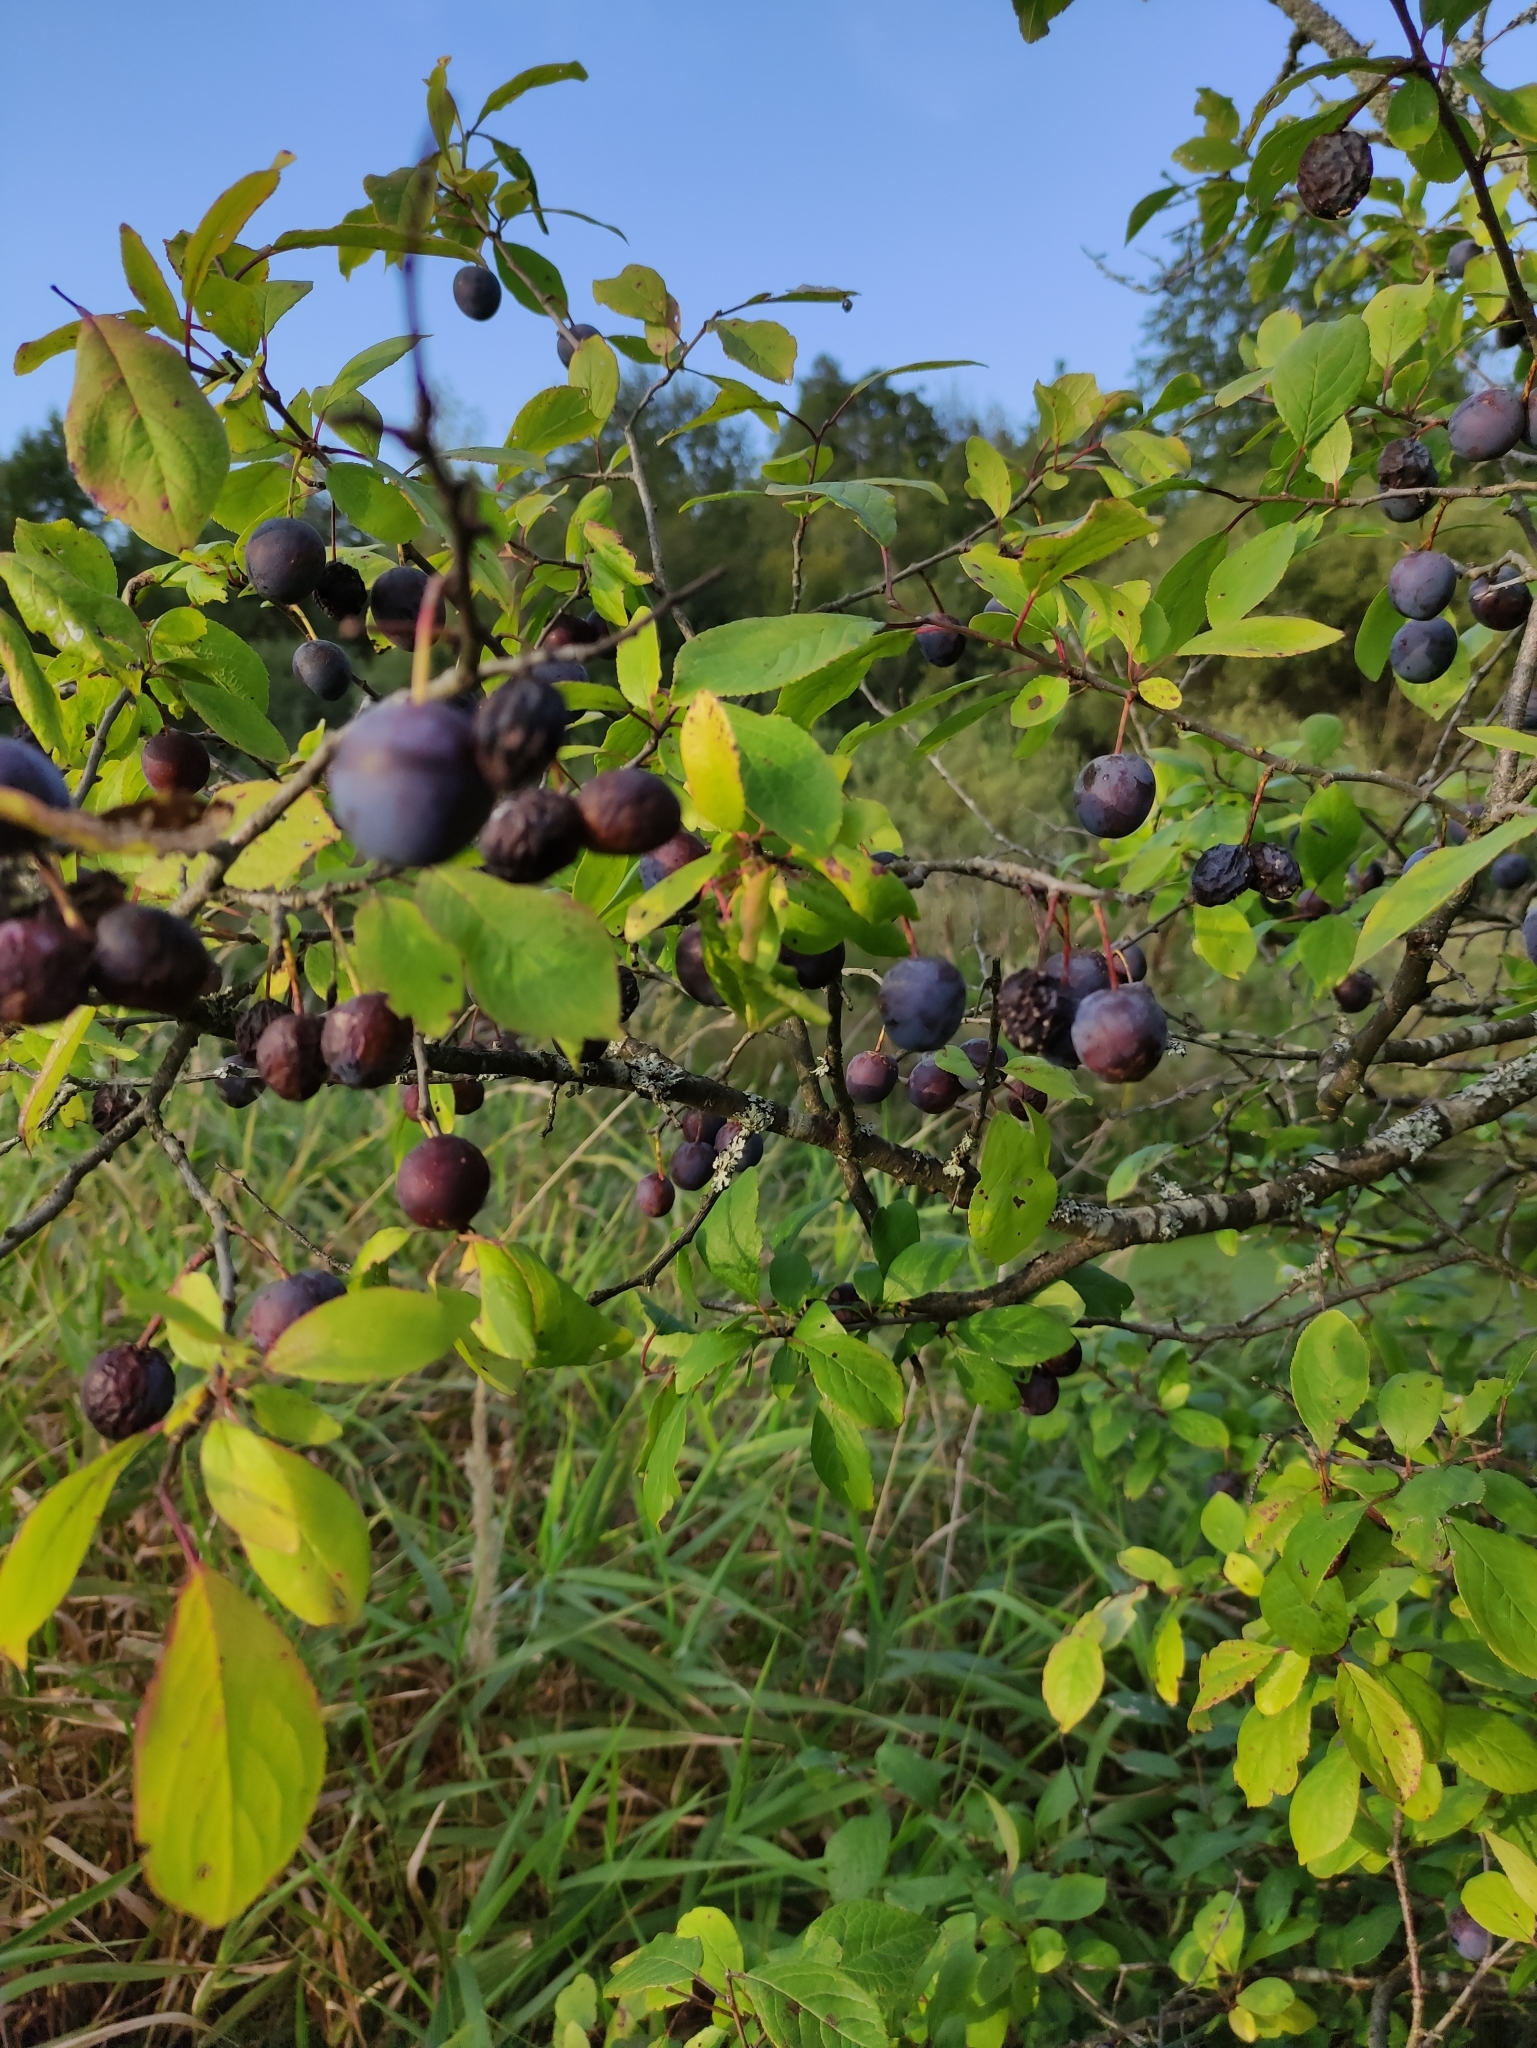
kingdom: Plantae
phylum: Tracheophyta
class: Magnoliopsida
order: Rosales
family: Rosaceae
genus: Prunus
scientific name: Prunus spinosa
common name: Blackthorn
